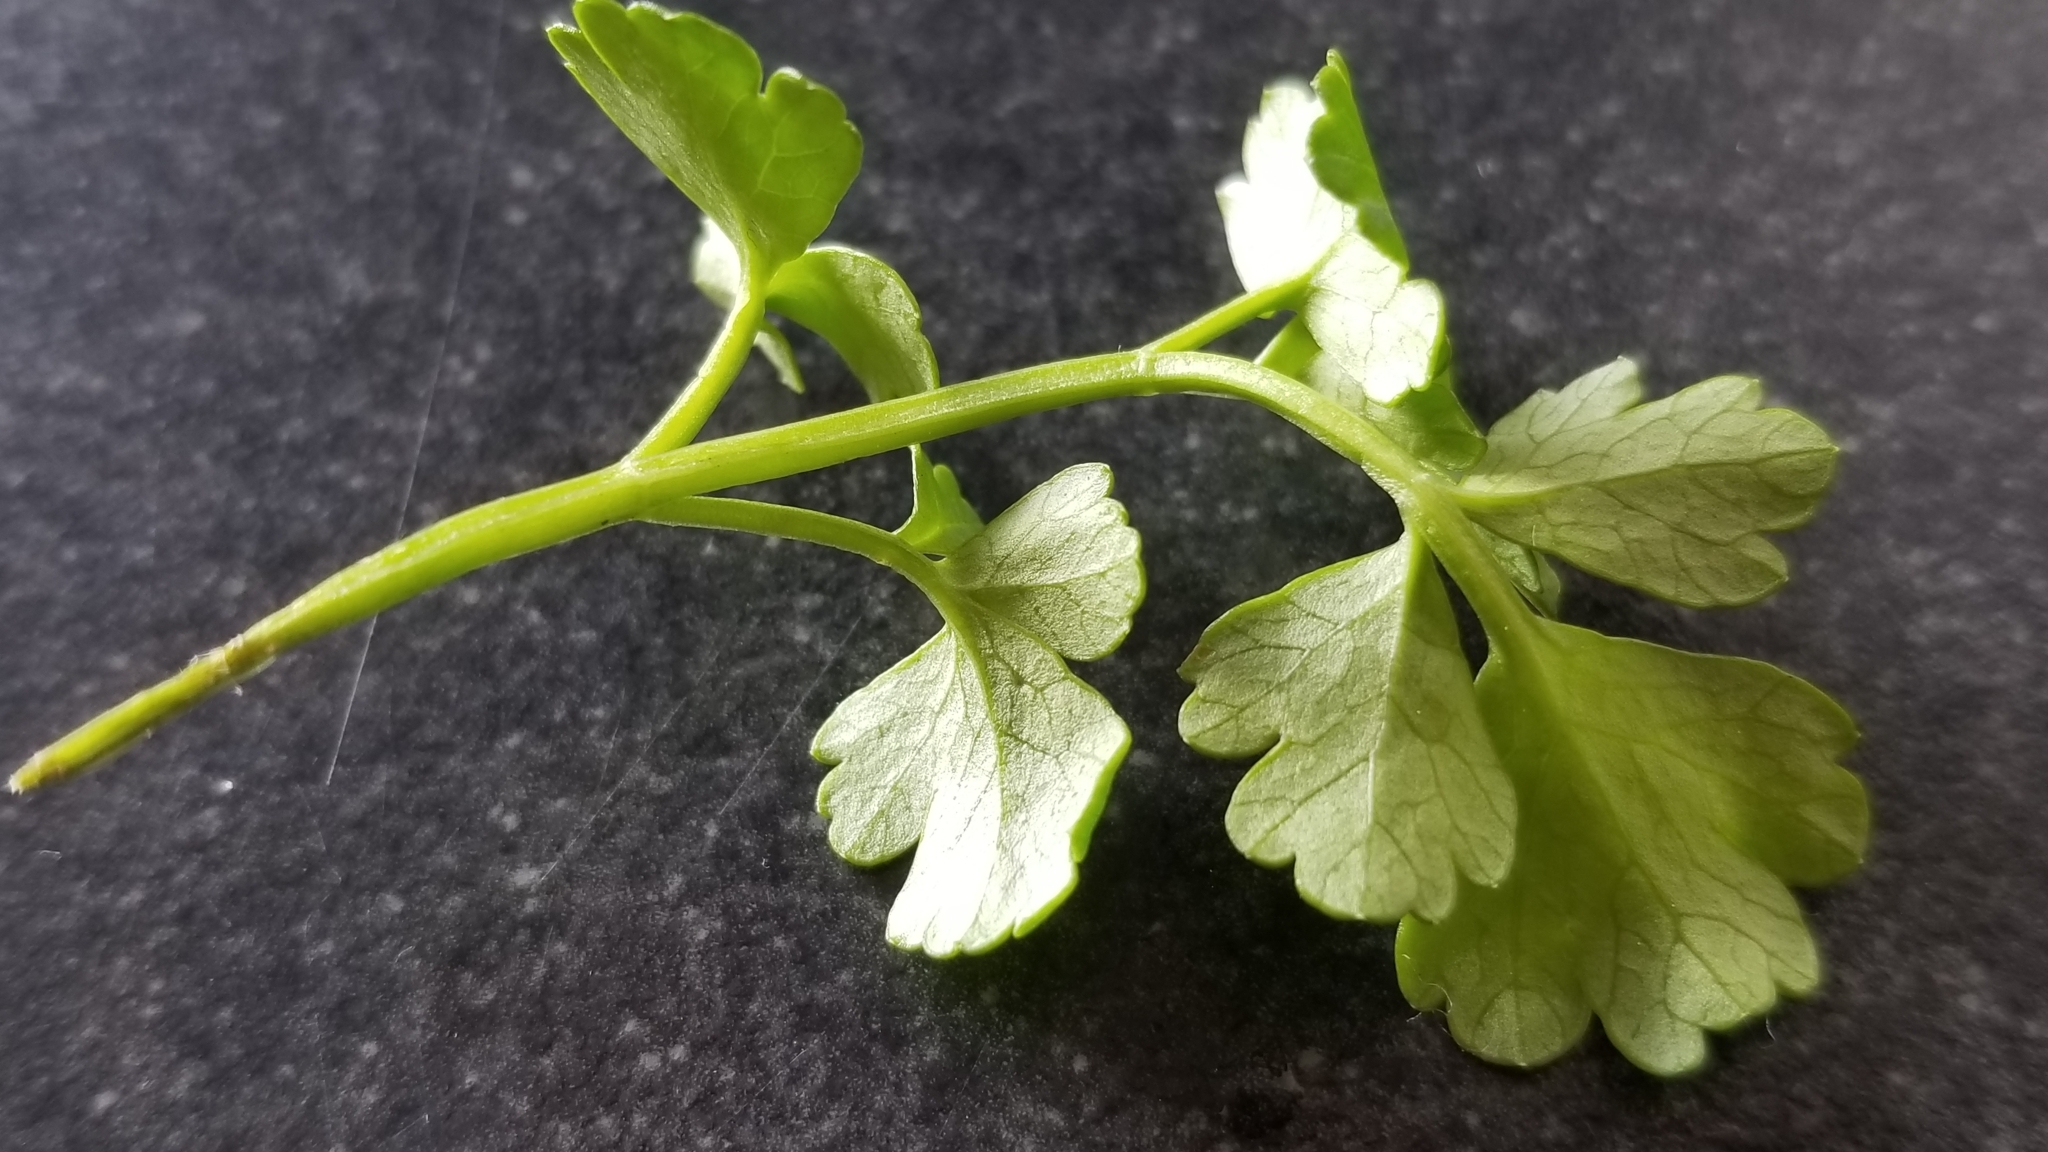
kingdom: Plantae
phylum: Tracheophyta
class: Magnoliopsida
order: Apiales
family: Apiaceae
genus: Apium
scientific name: Apium prostratum
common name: Prostrate marshwort
